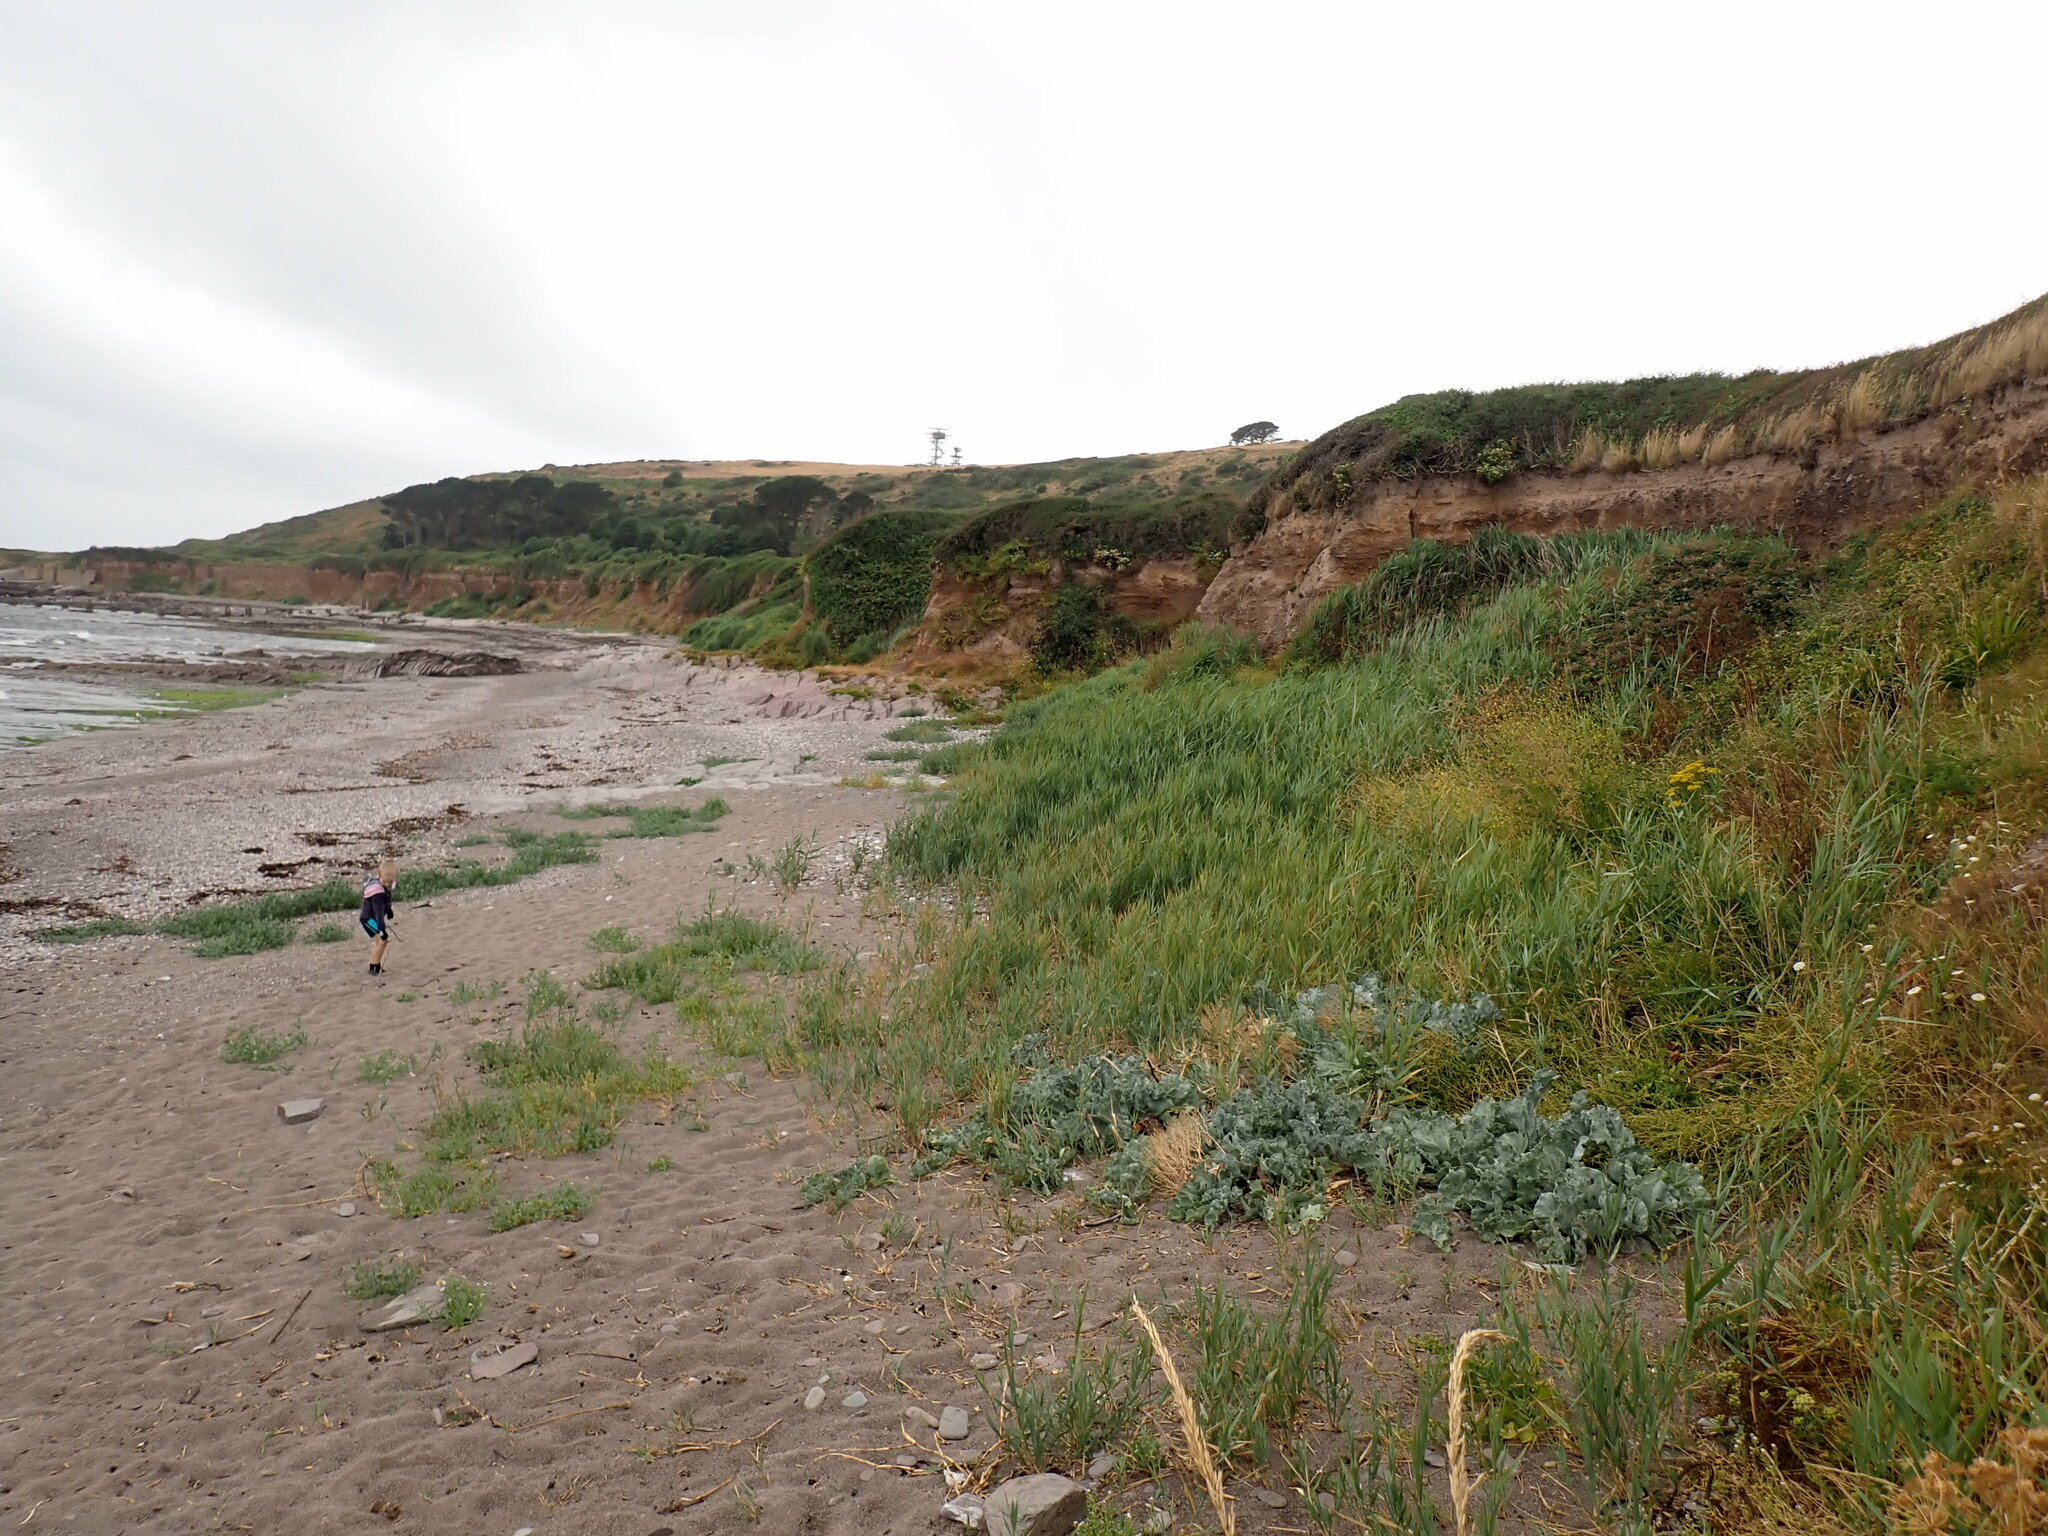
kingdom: Plantae
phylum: Tracheophyta
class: Magnoliopsida
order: Brassicales
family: Brassicaceae
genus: Crambe
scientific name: Crambe maritima
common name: Sea-kale
